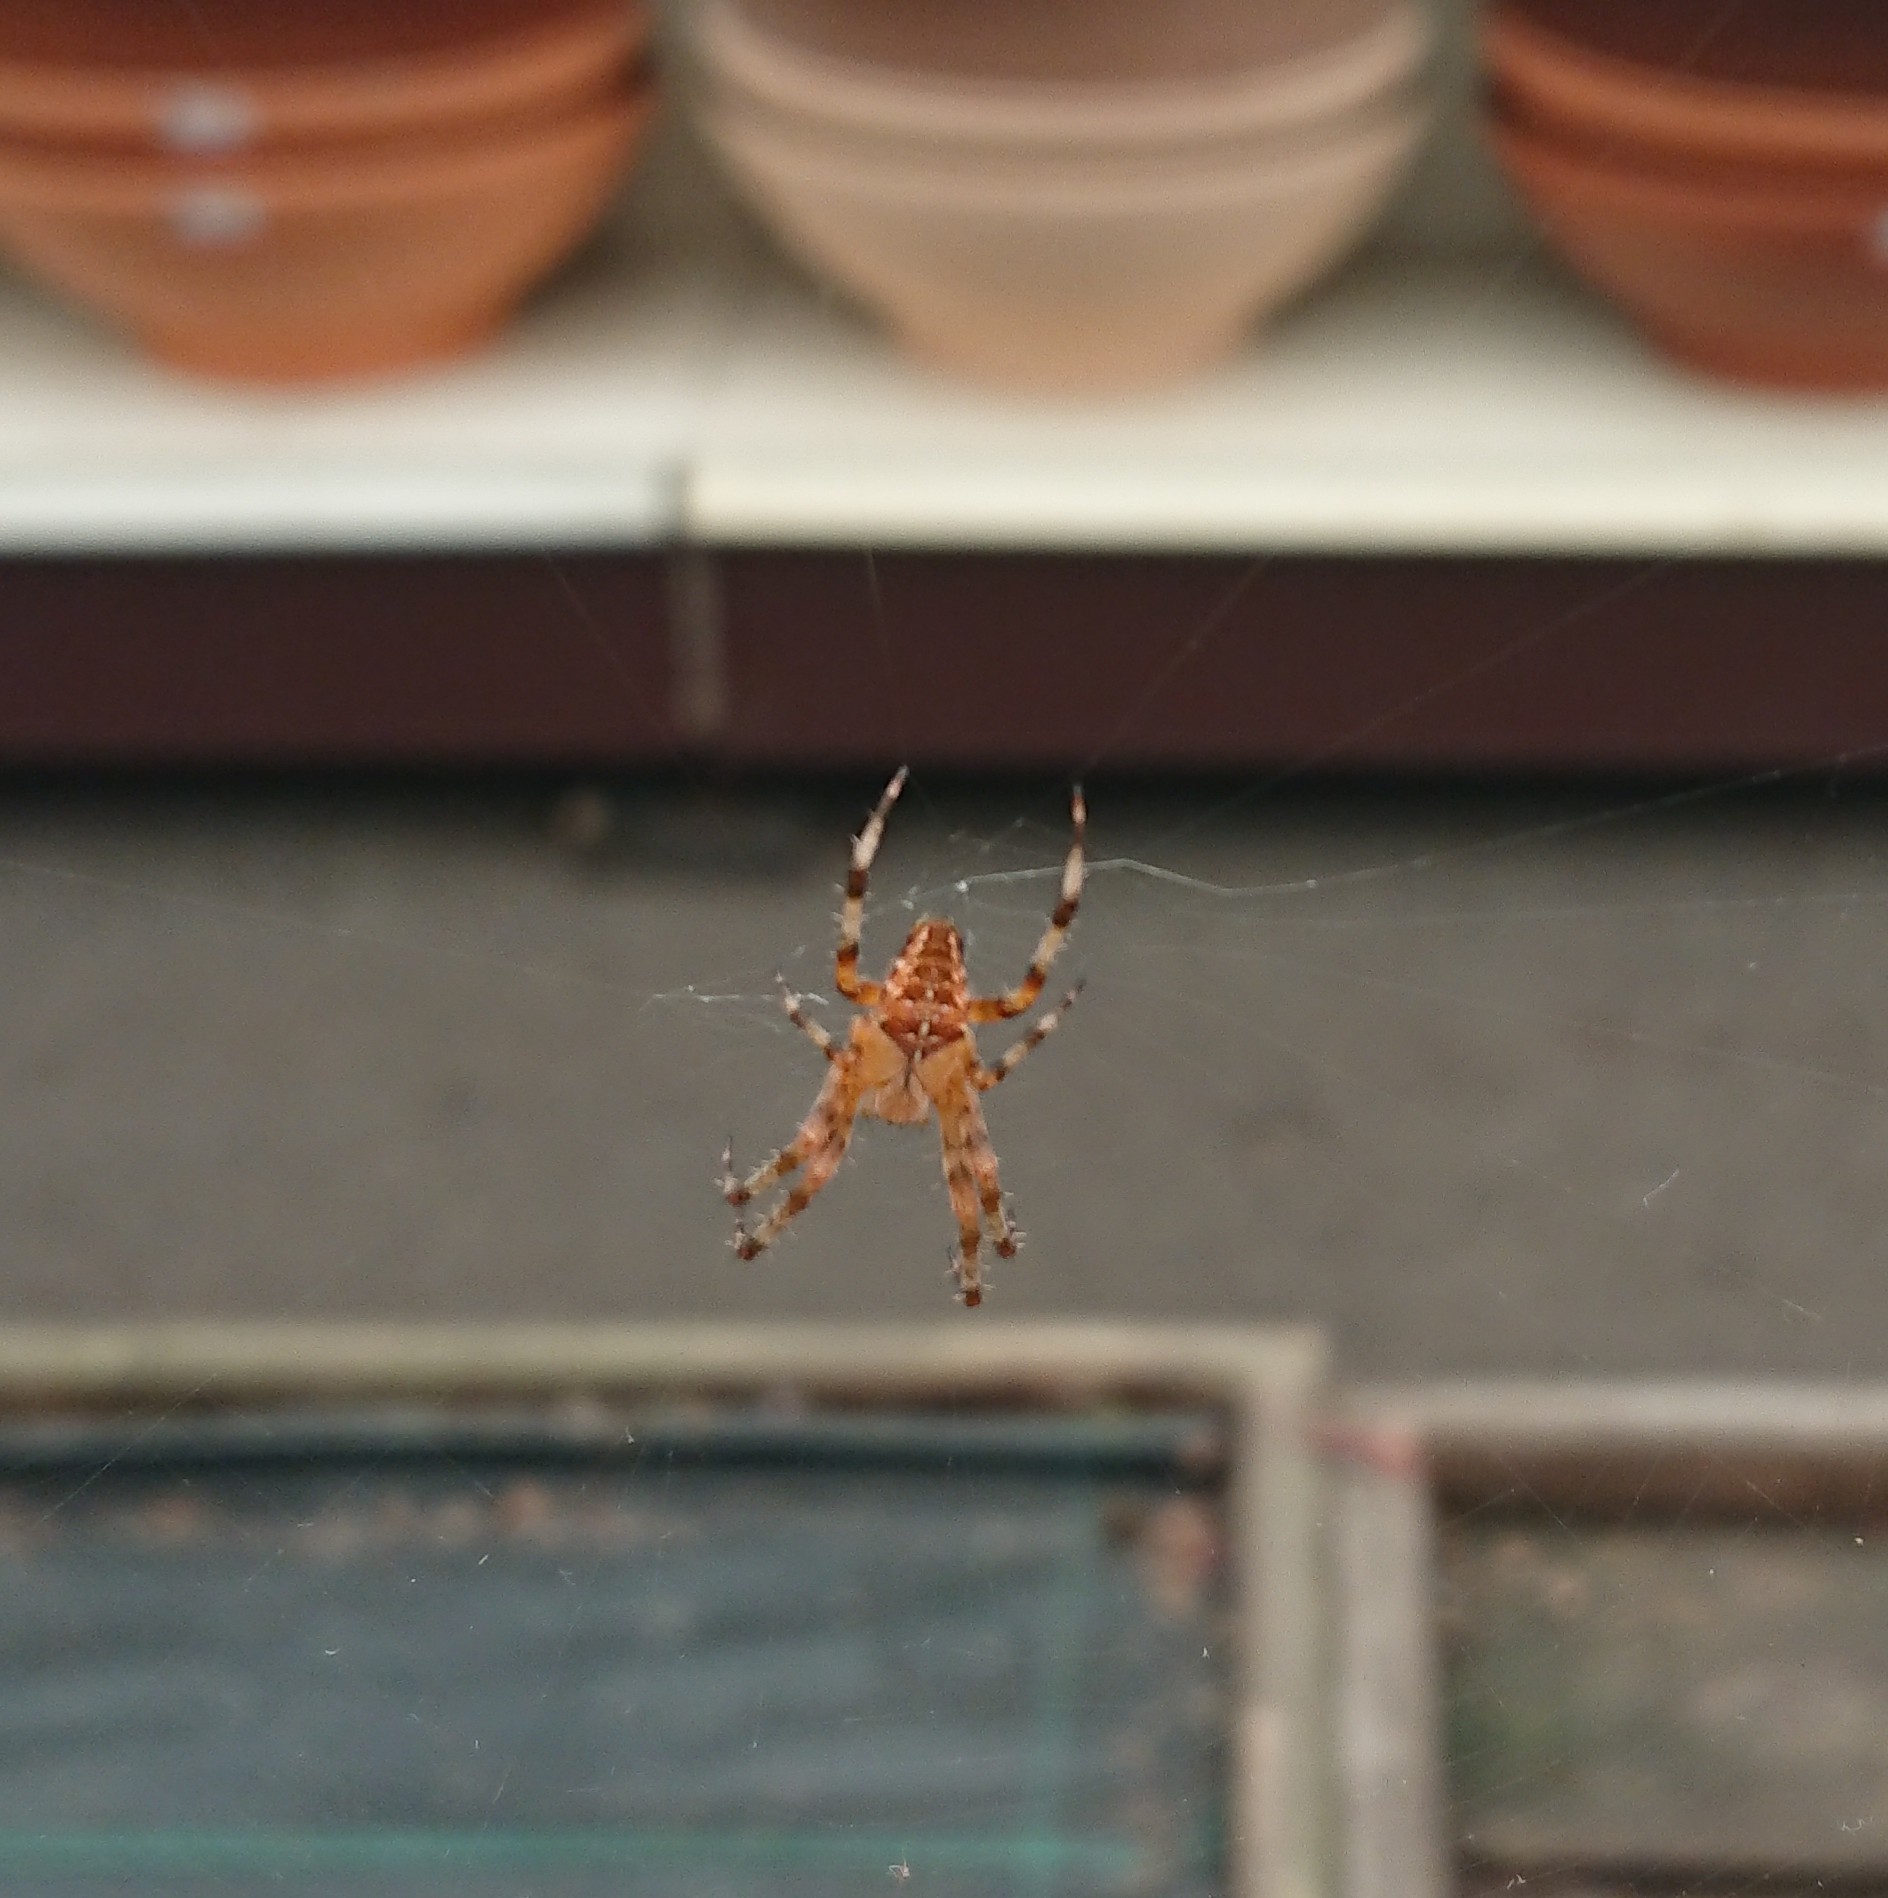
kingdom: Animalia
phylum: Arthropoda
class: Arachnida
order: Araneae
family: Araneidae
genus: Araneus
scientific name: Araneus diadematus
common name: Cross orbweaver
